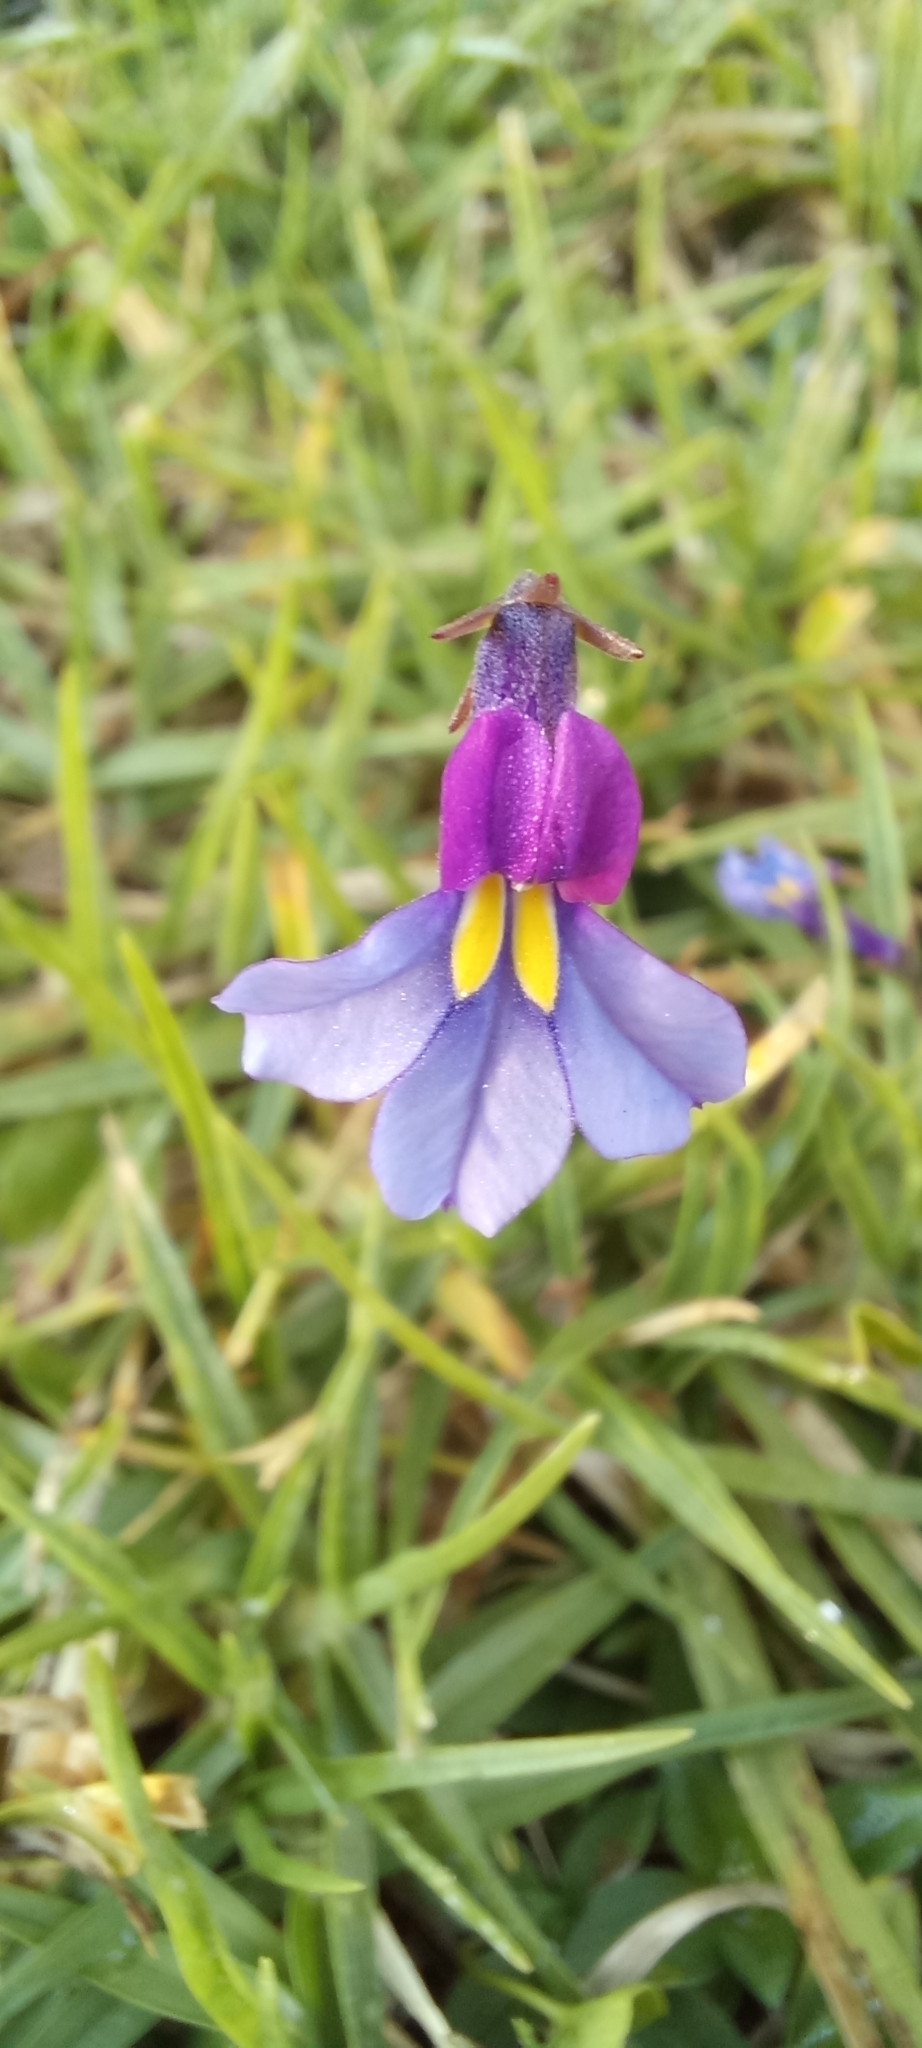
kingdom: Plantae
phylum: Tracheophyta
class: Magnoliopsida
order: Asterales
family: Campanulaceae
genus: Monopsis
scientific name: Monopsis decipiens
